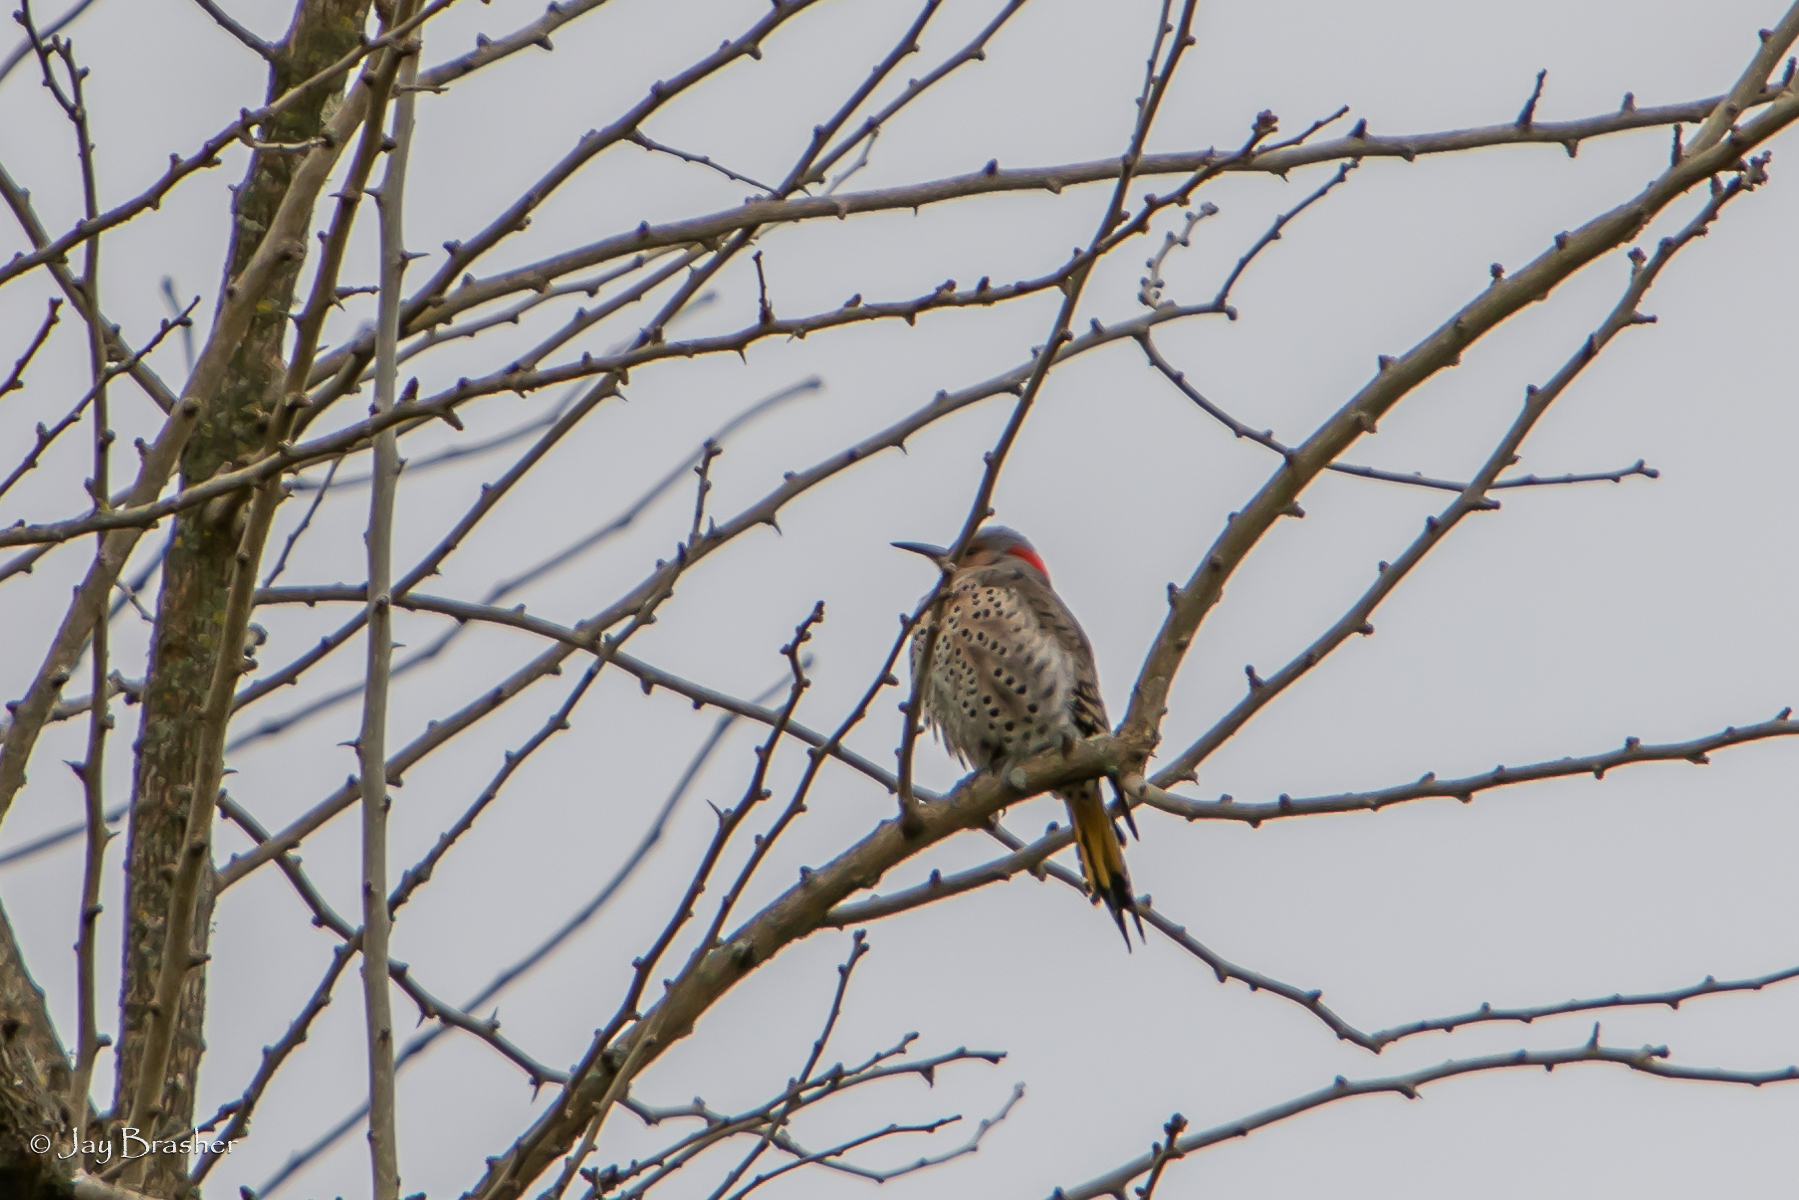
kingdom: Animalia
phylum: Chordata
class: Aves
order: Piciformes
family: Picidae
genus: Colaptes
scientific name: Colaptes auratus
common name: Northern flicker
